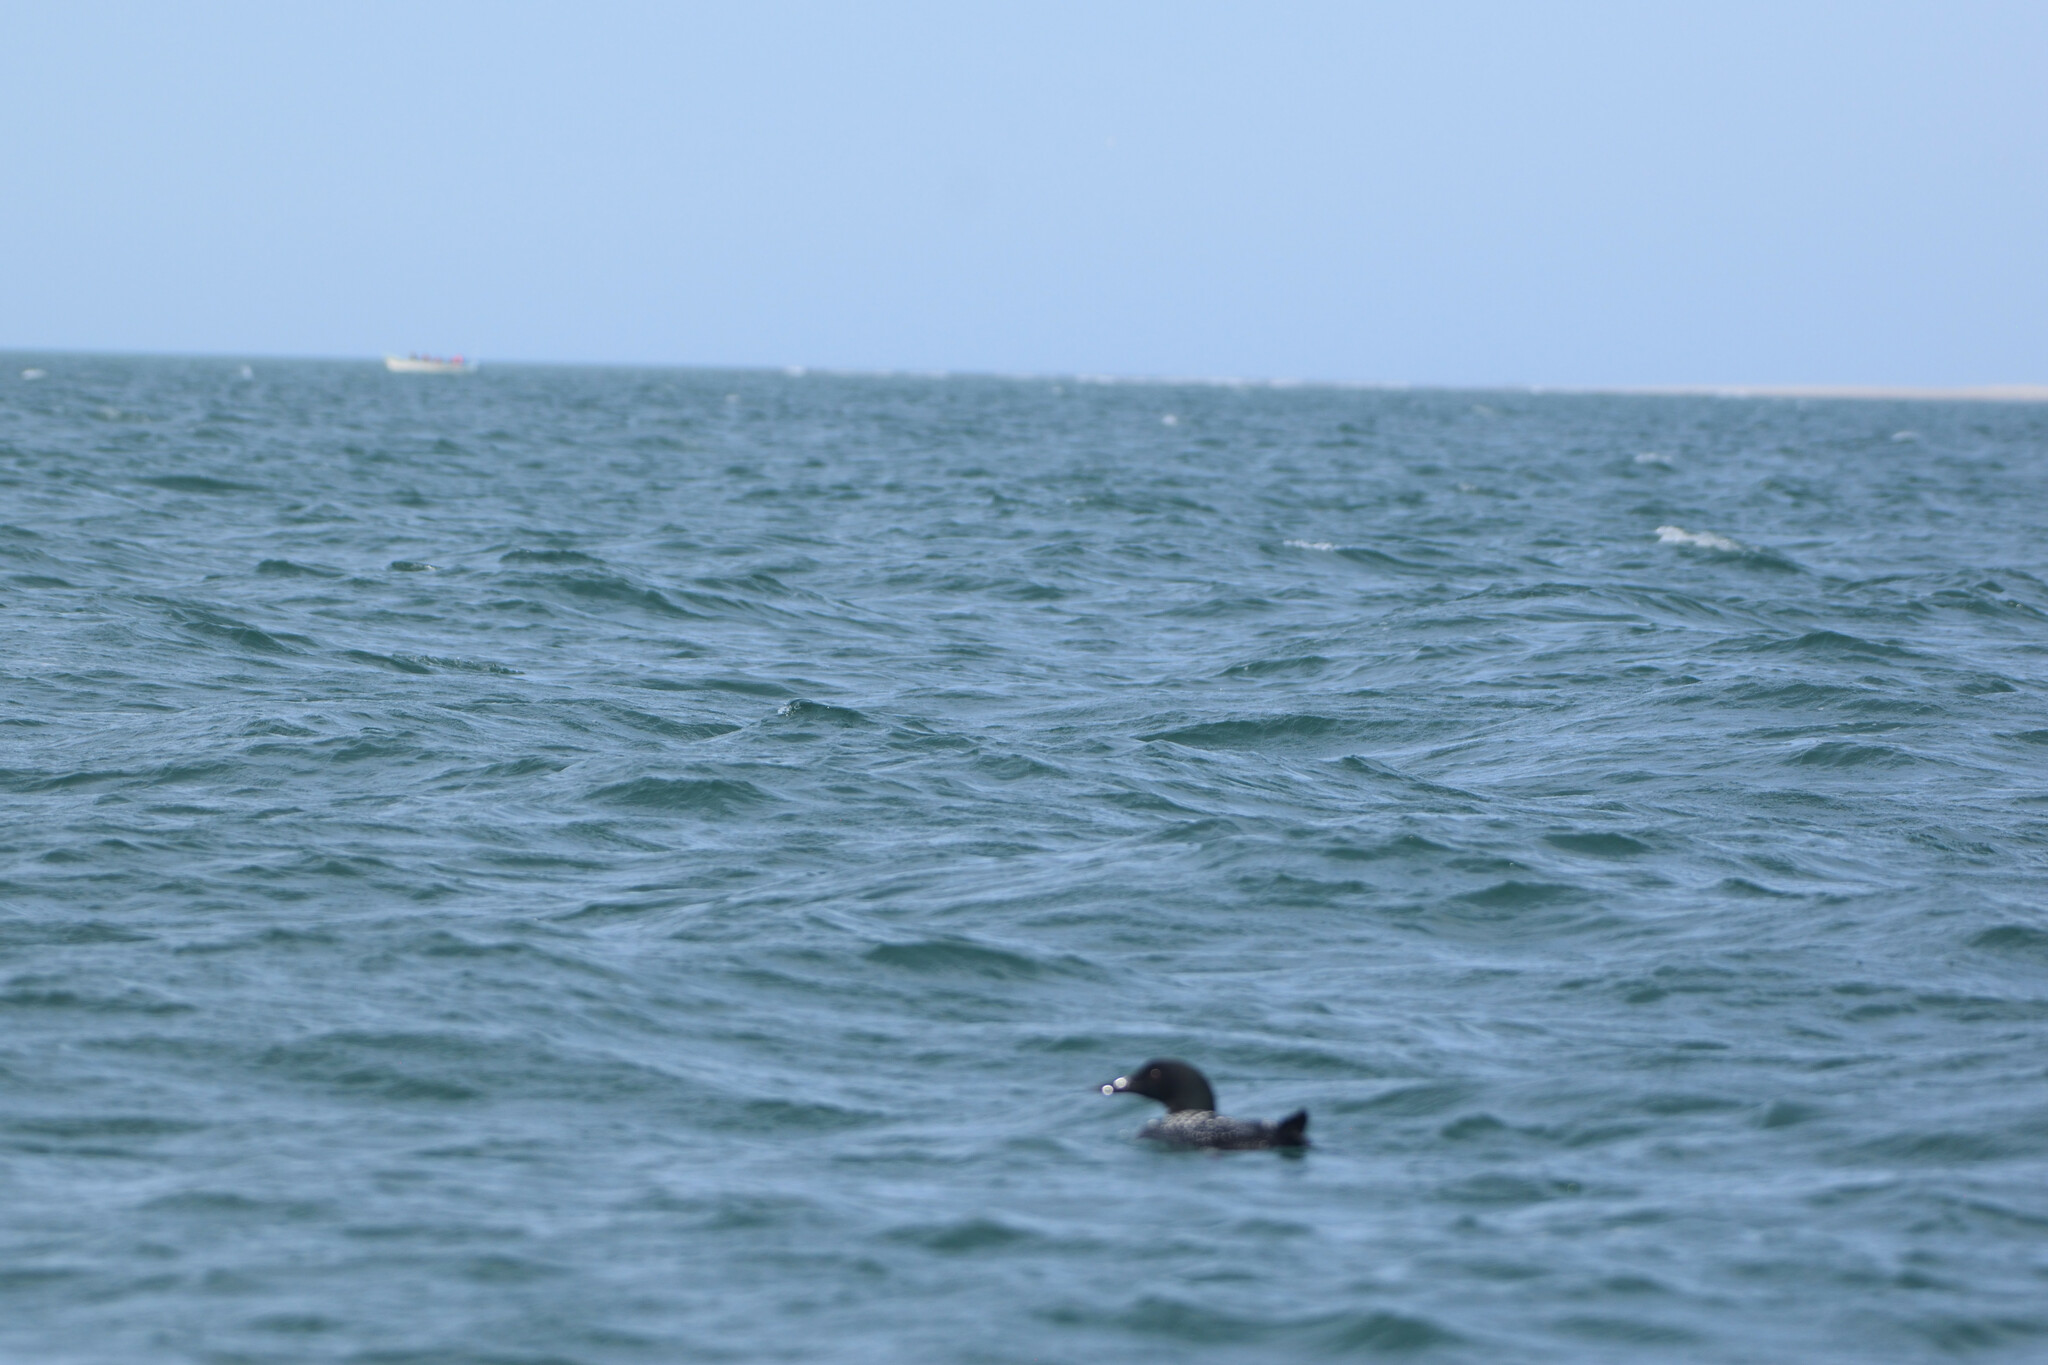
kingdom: Animalia
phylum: Chordata
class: Aves
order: Gaviiformes
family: Gaviidae
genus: Gavia
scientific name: Gavia immer
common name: Common loon
